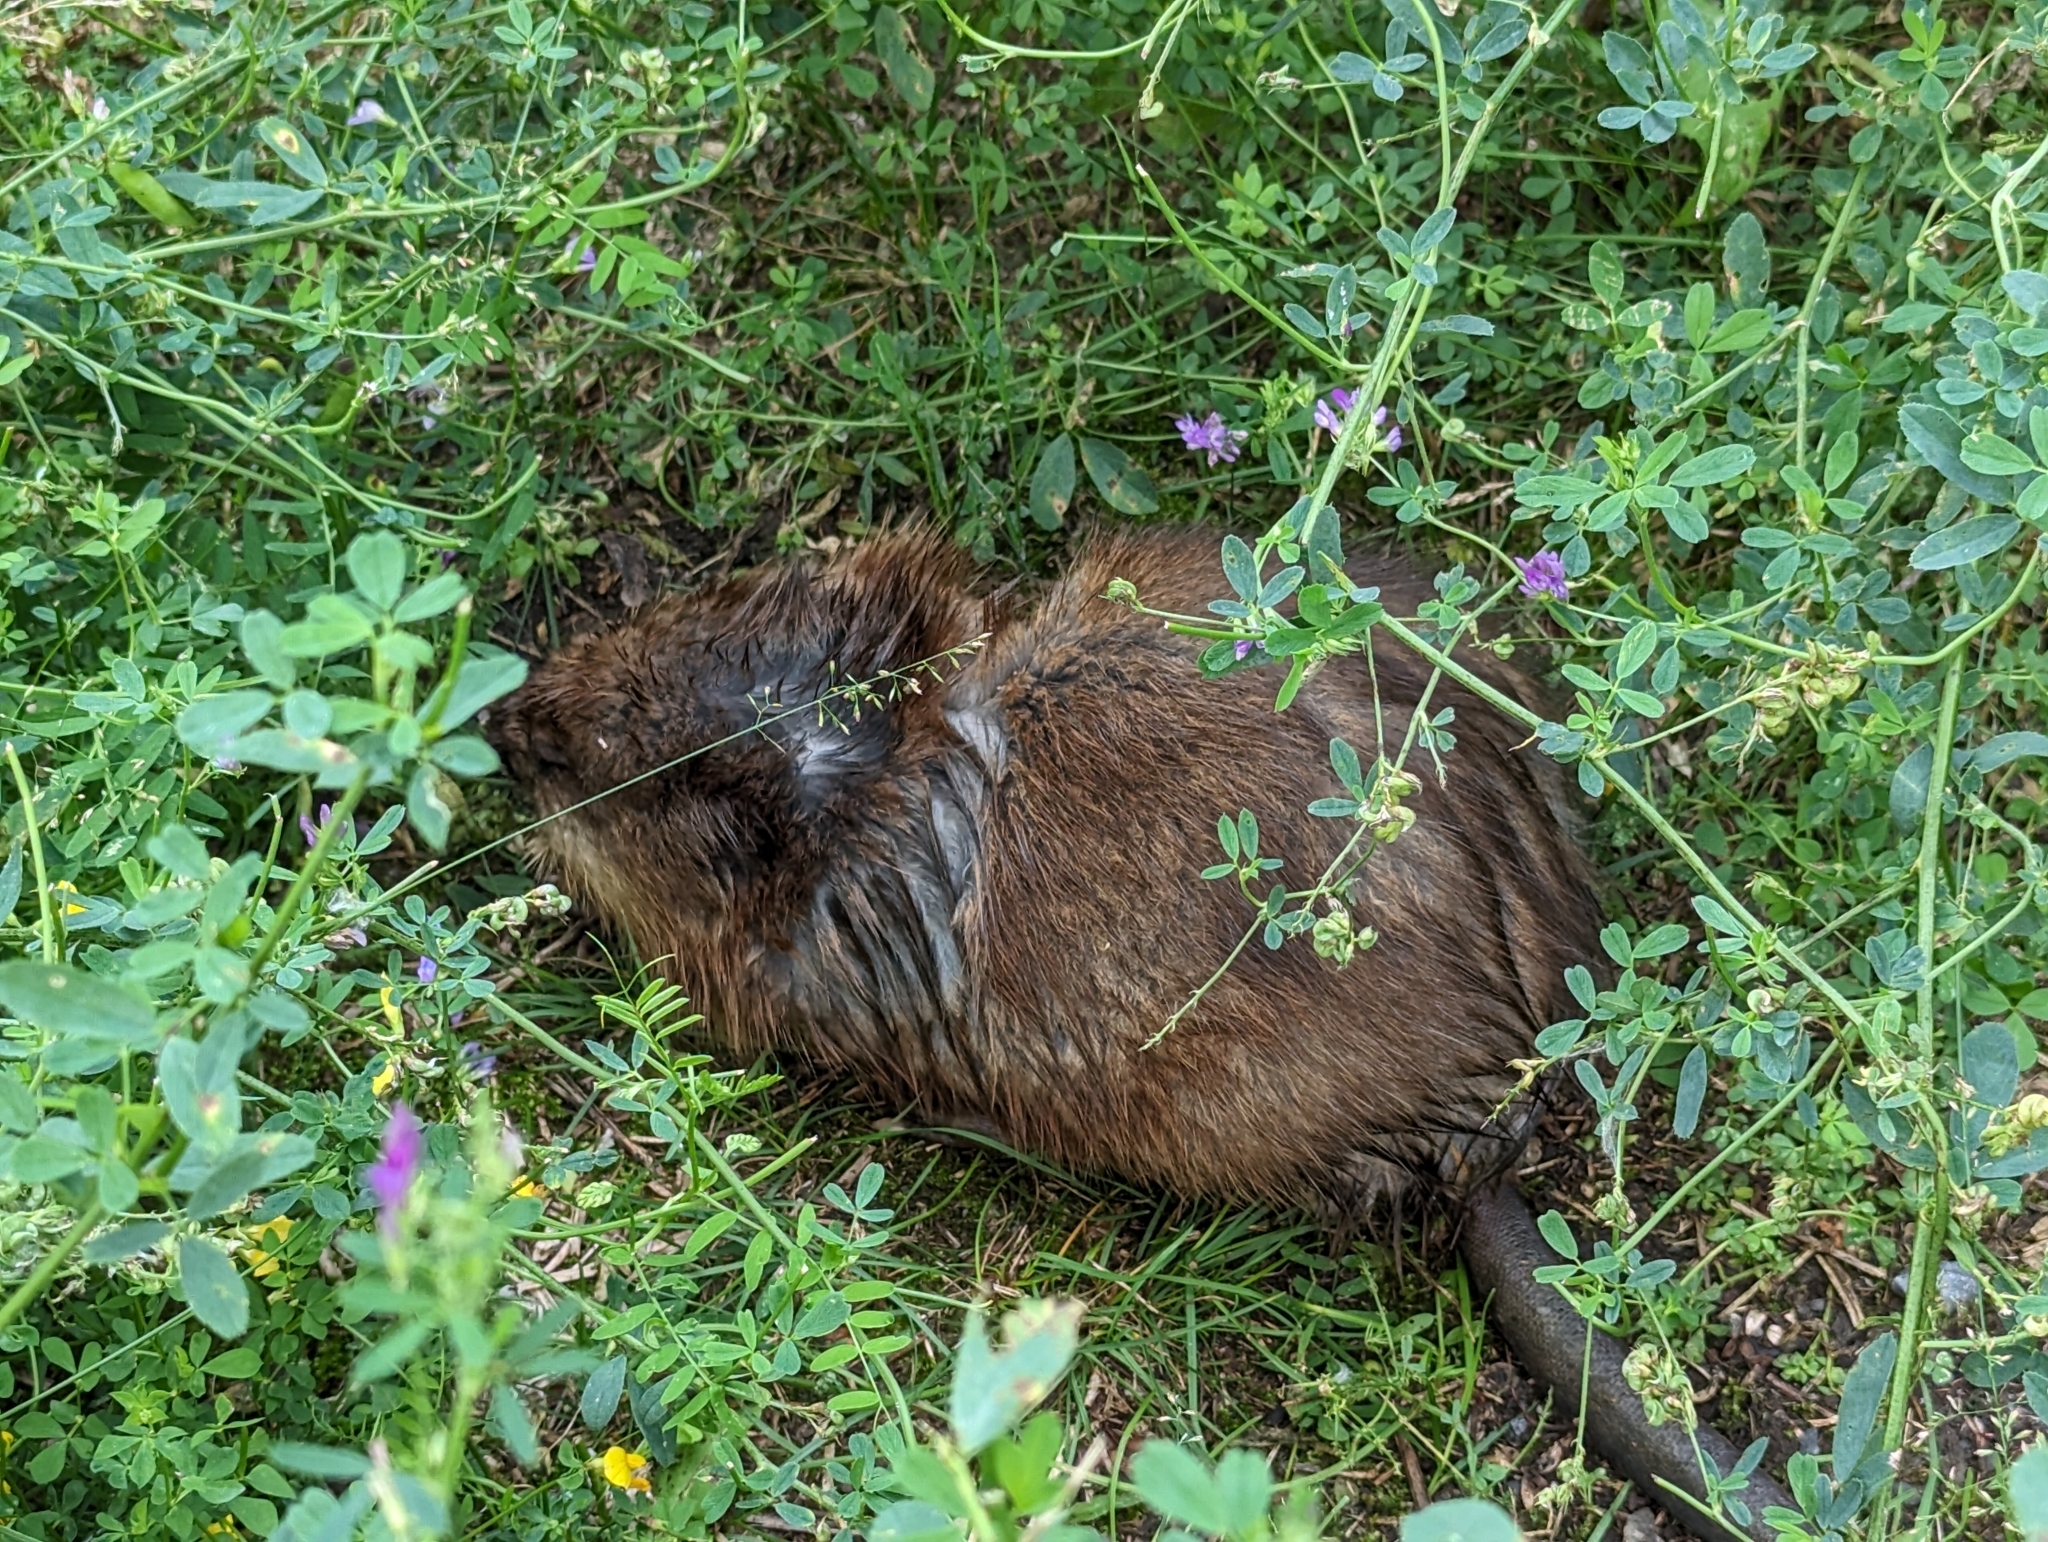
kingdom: Animalia
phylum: Chordata
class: Mammalia
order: Rodentia
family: Cricetidae
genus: Ondatra
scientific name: Ondatra zibethicus
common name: Muskrat
